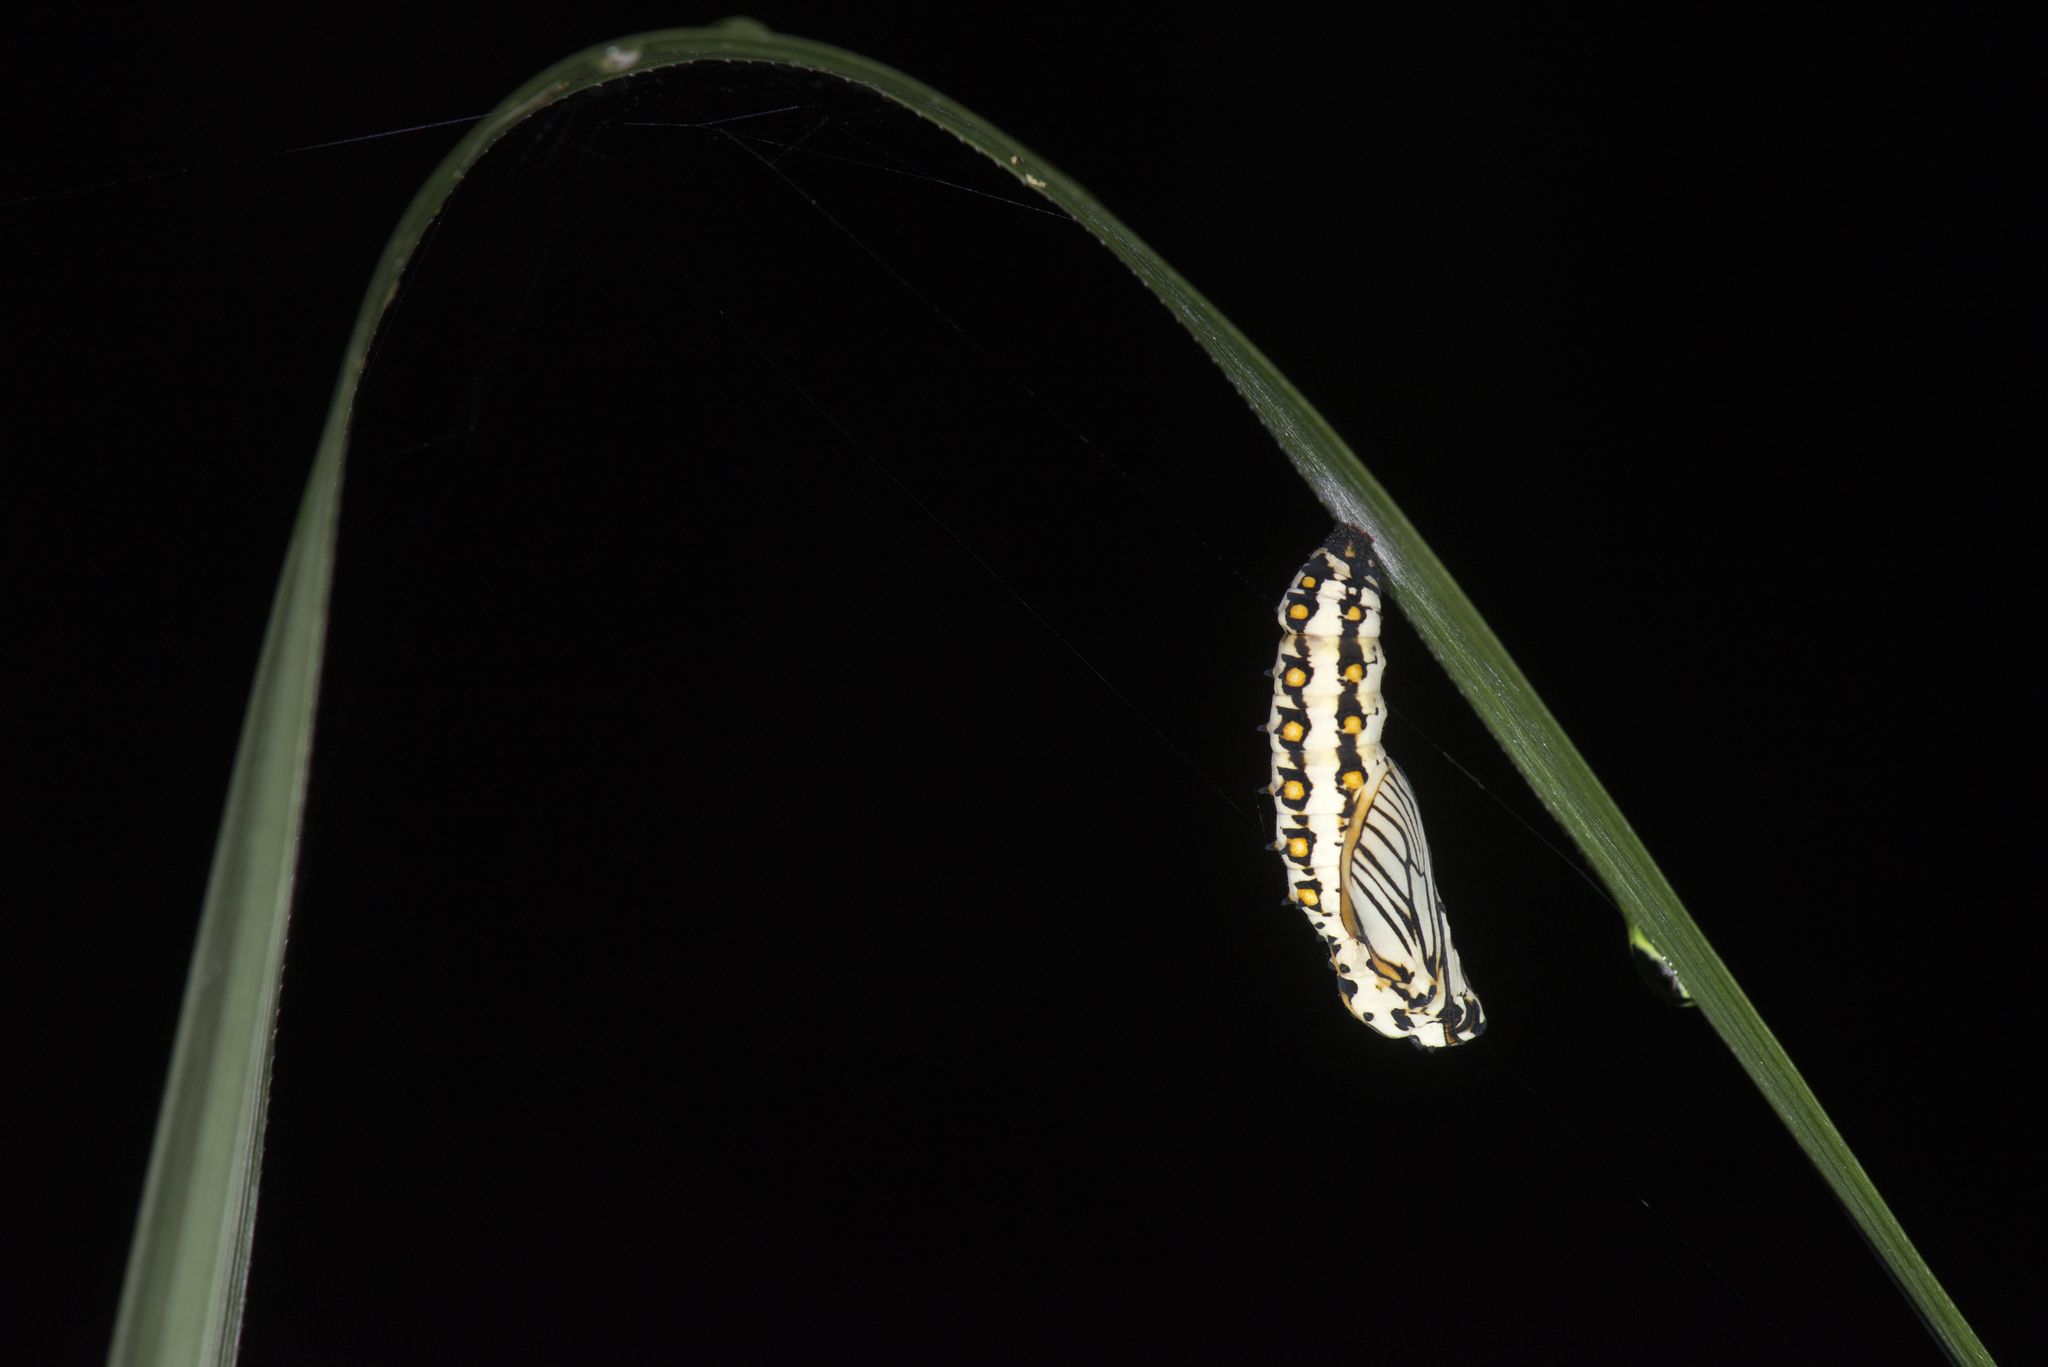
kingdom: Animalia
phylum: Arthropoda
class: Insecta
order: Lepidoptera
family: Nymphalidae
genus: Acraea
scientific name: Acraea Telchinia issoria
